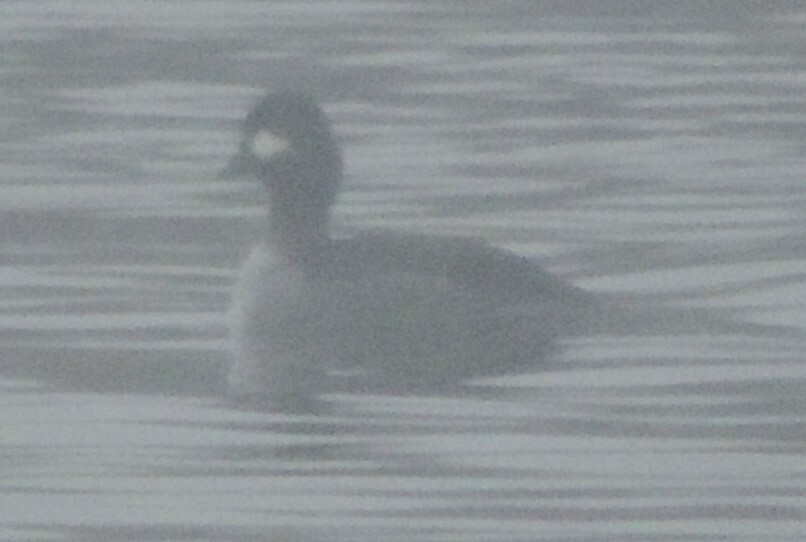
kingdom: Animalia
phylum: Chordata
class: Aves
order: Anseriformes
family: Anatidae
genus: Bucephala
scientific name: Bucephala albeola
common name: Bufflehead
